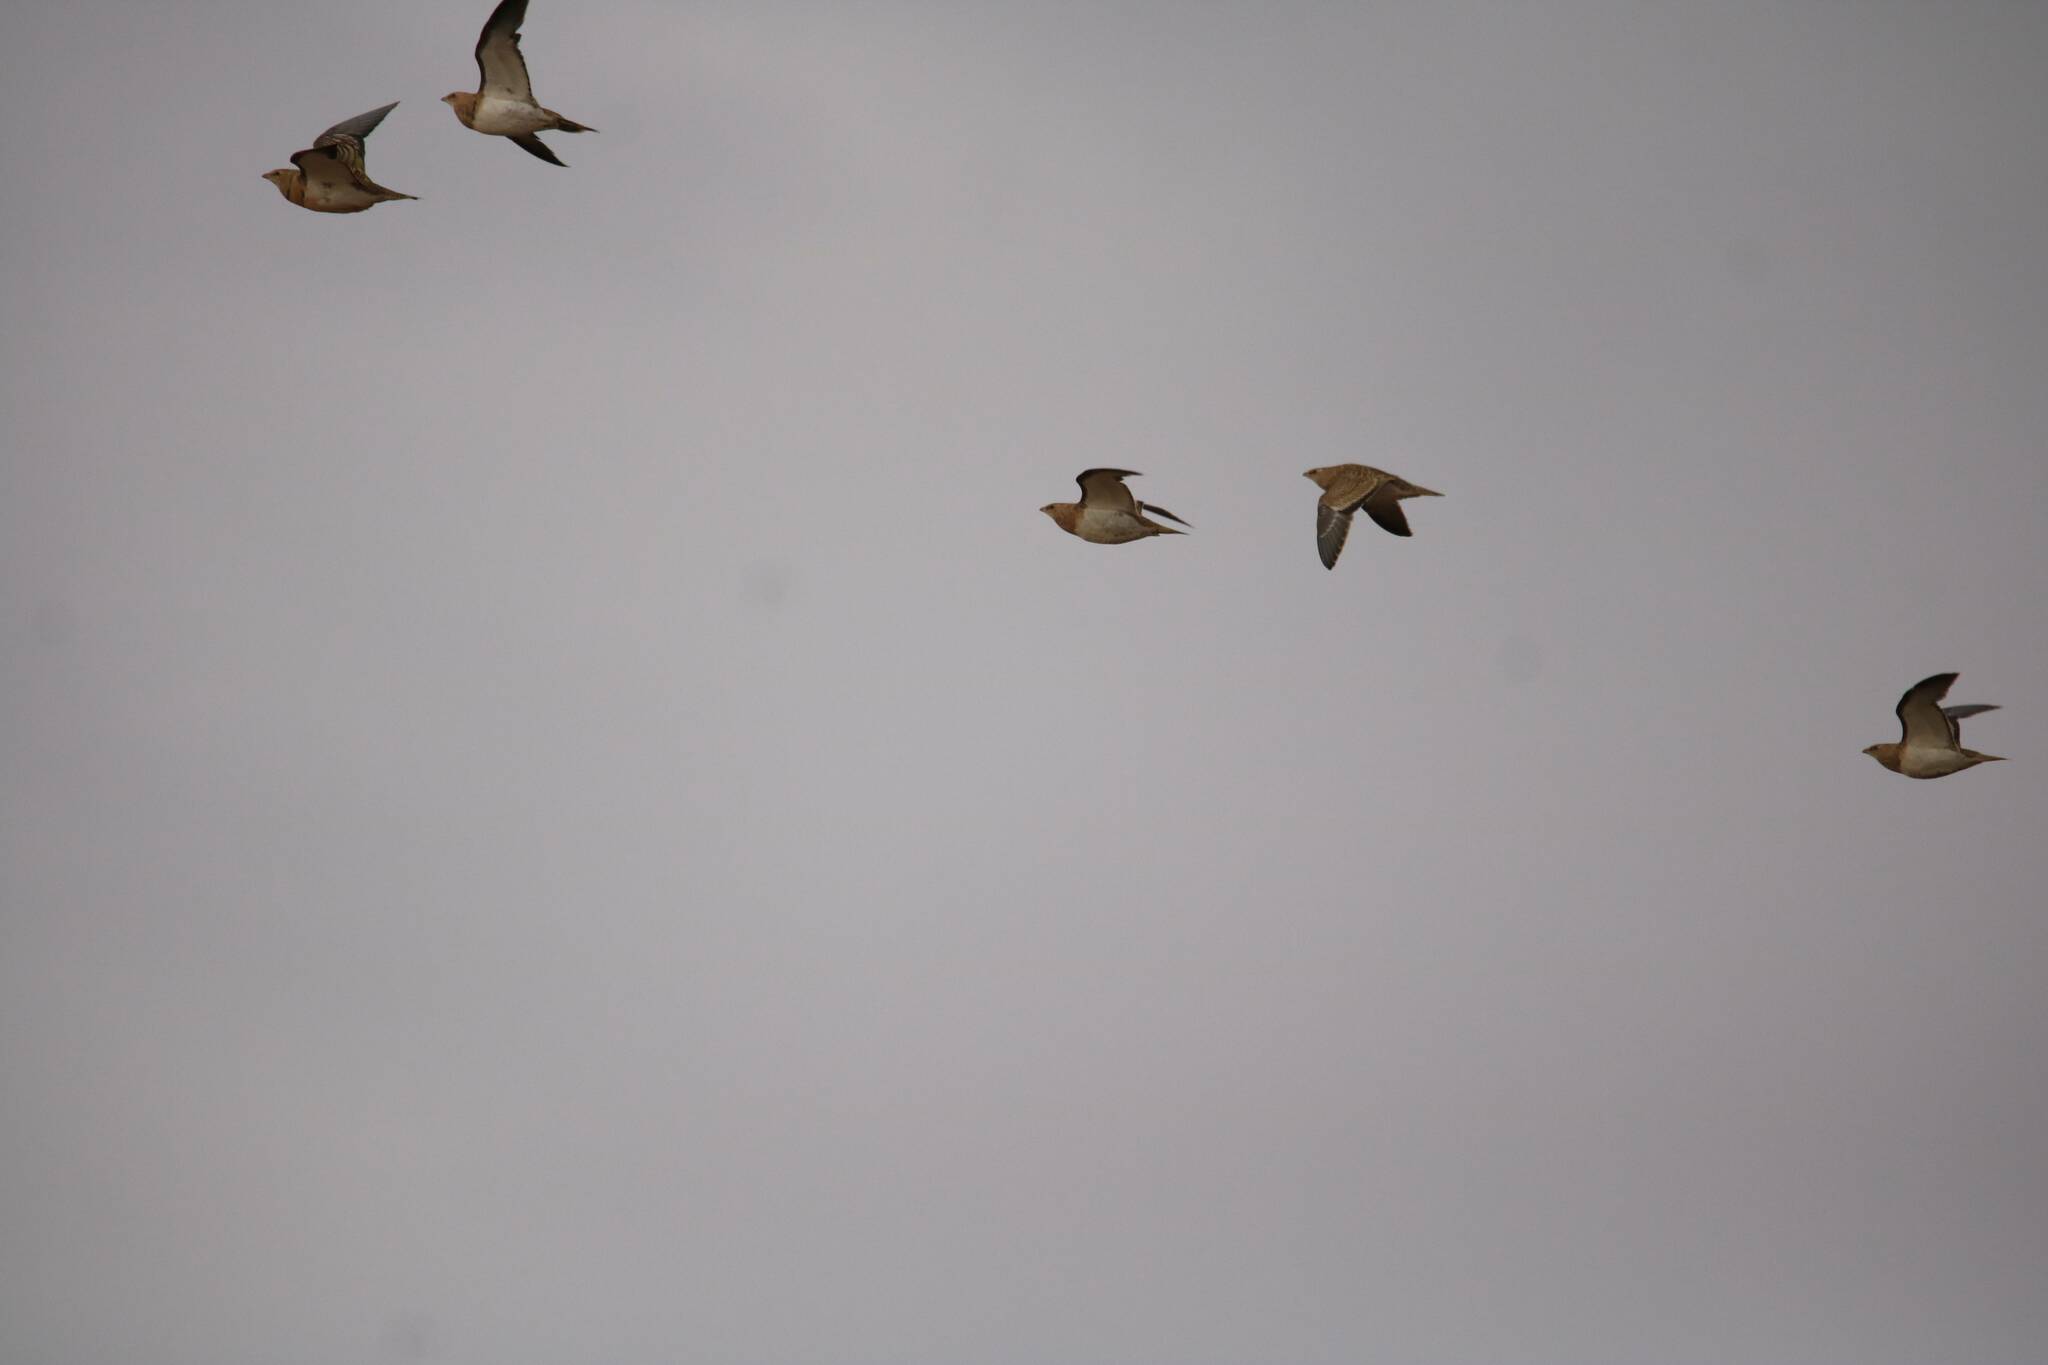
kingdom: Animalia
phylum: Chordata
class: Aves
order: Pteroclidiformes
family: Pteroclididae
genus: Pterocles
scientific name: Pterocles alchata
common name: Pin-tailed sandgrouse
